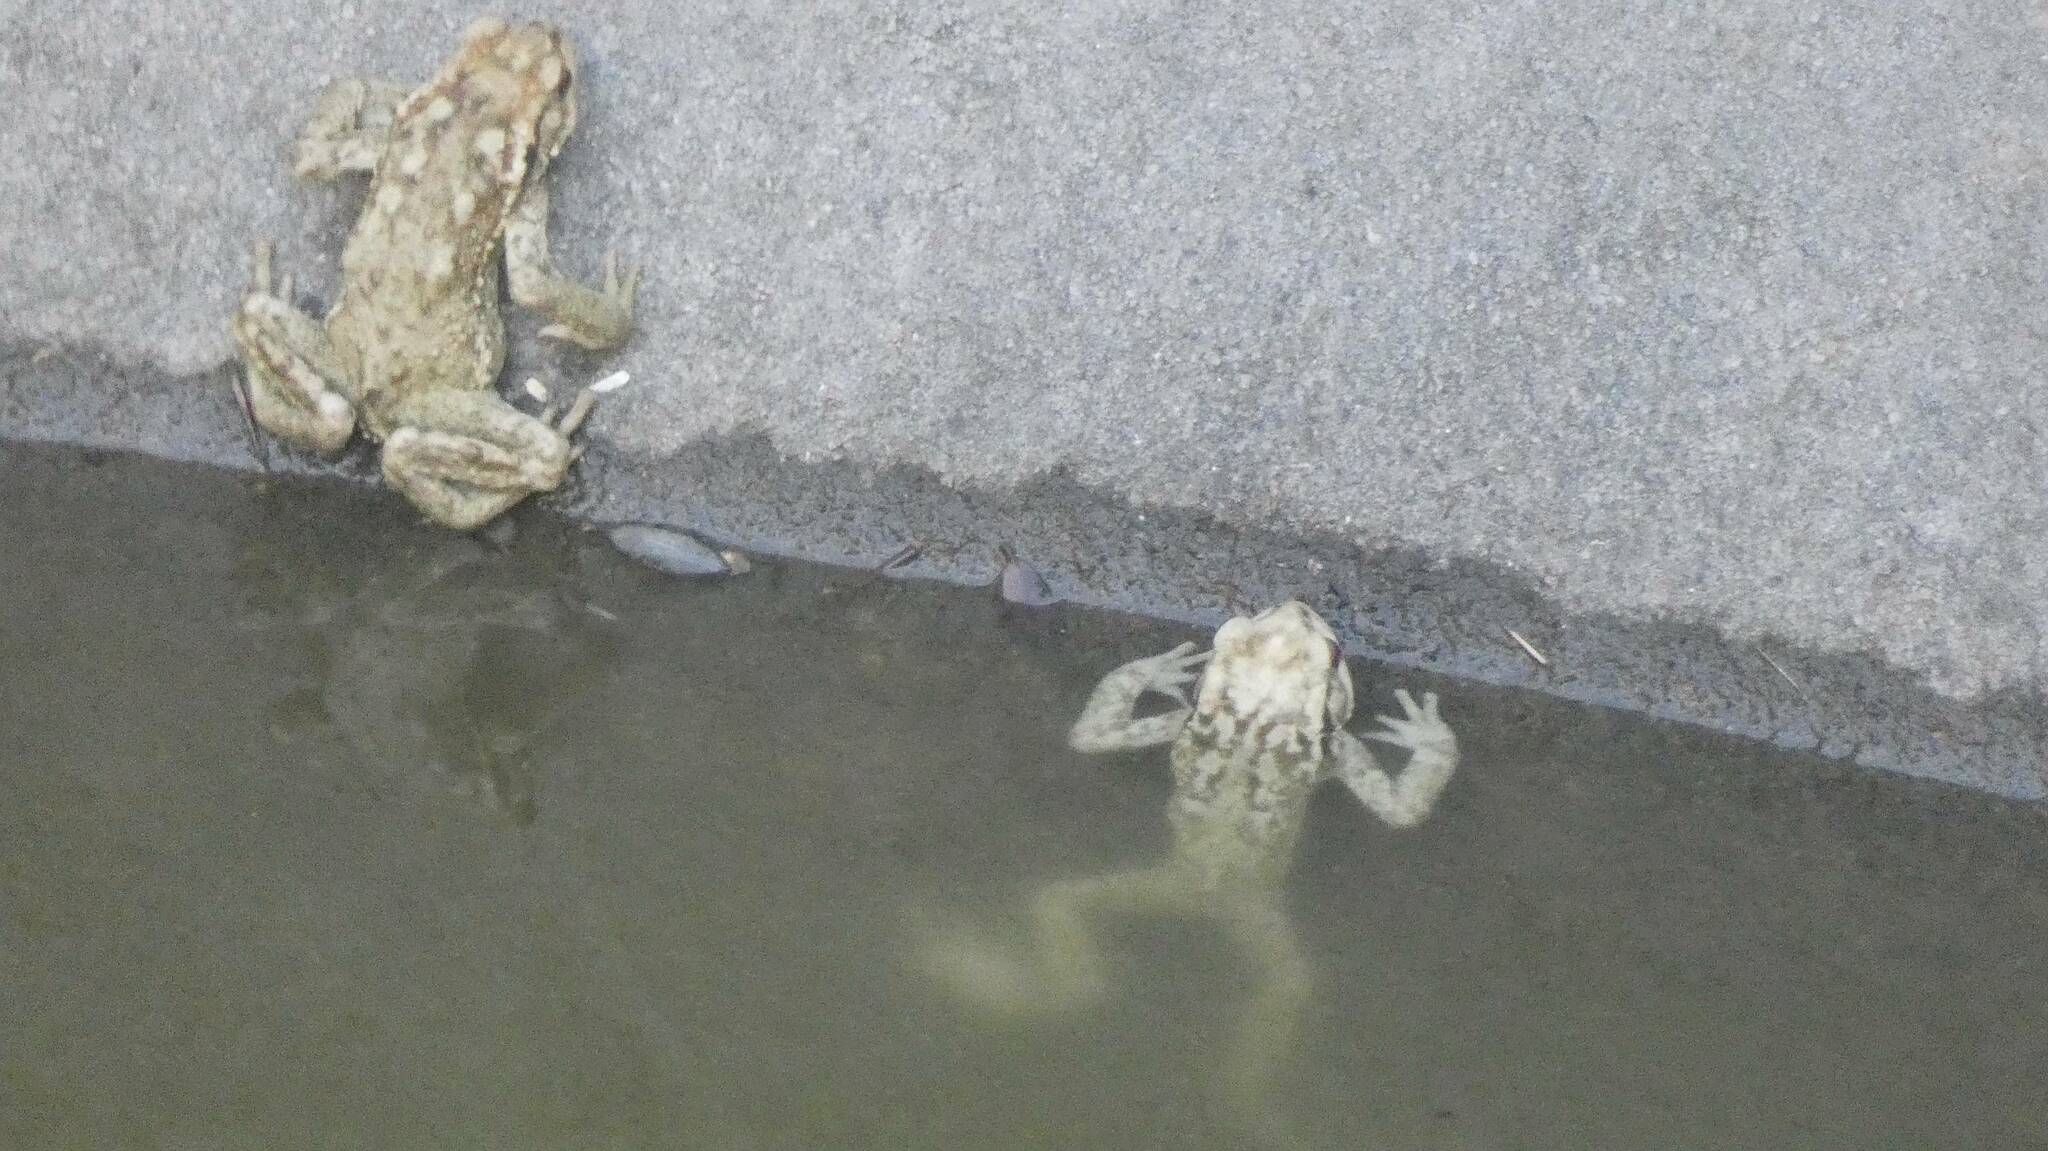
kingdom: Animalia
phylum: Chordata
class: Amphibia
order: Anura
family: Bufonidae
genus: Bufo
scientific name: Bufo spinosus
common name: Western common toad
